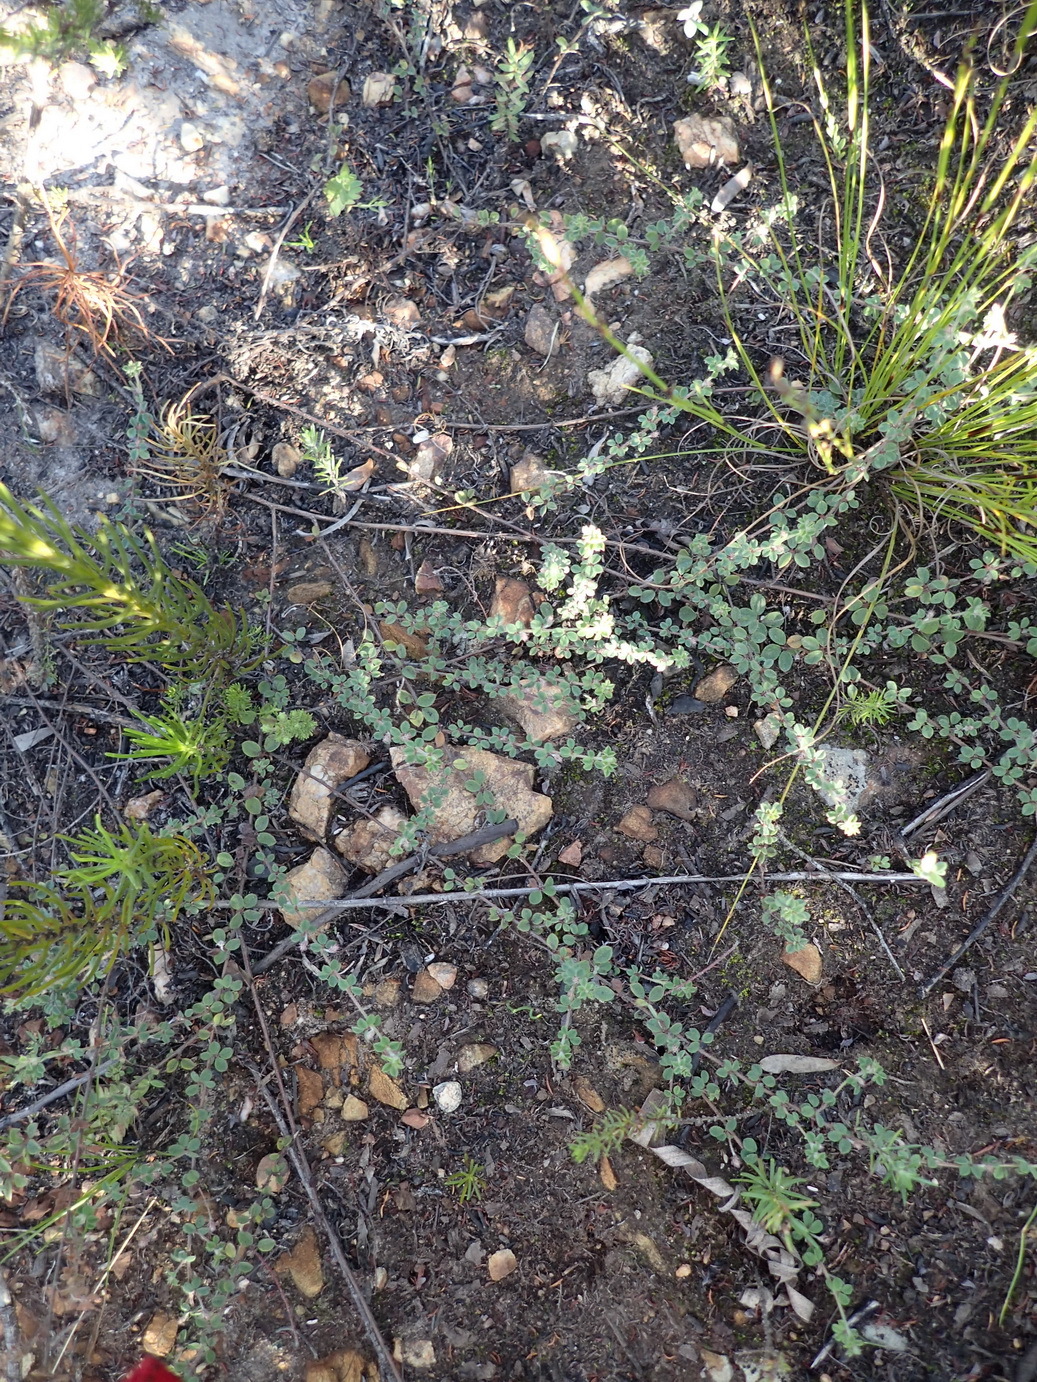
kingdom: Plantae
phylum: Tracheophyta
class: Magnoliopsida
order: Fabales
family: Fabaceae
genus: Indigofera
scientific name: Indigofera alopecuroides
